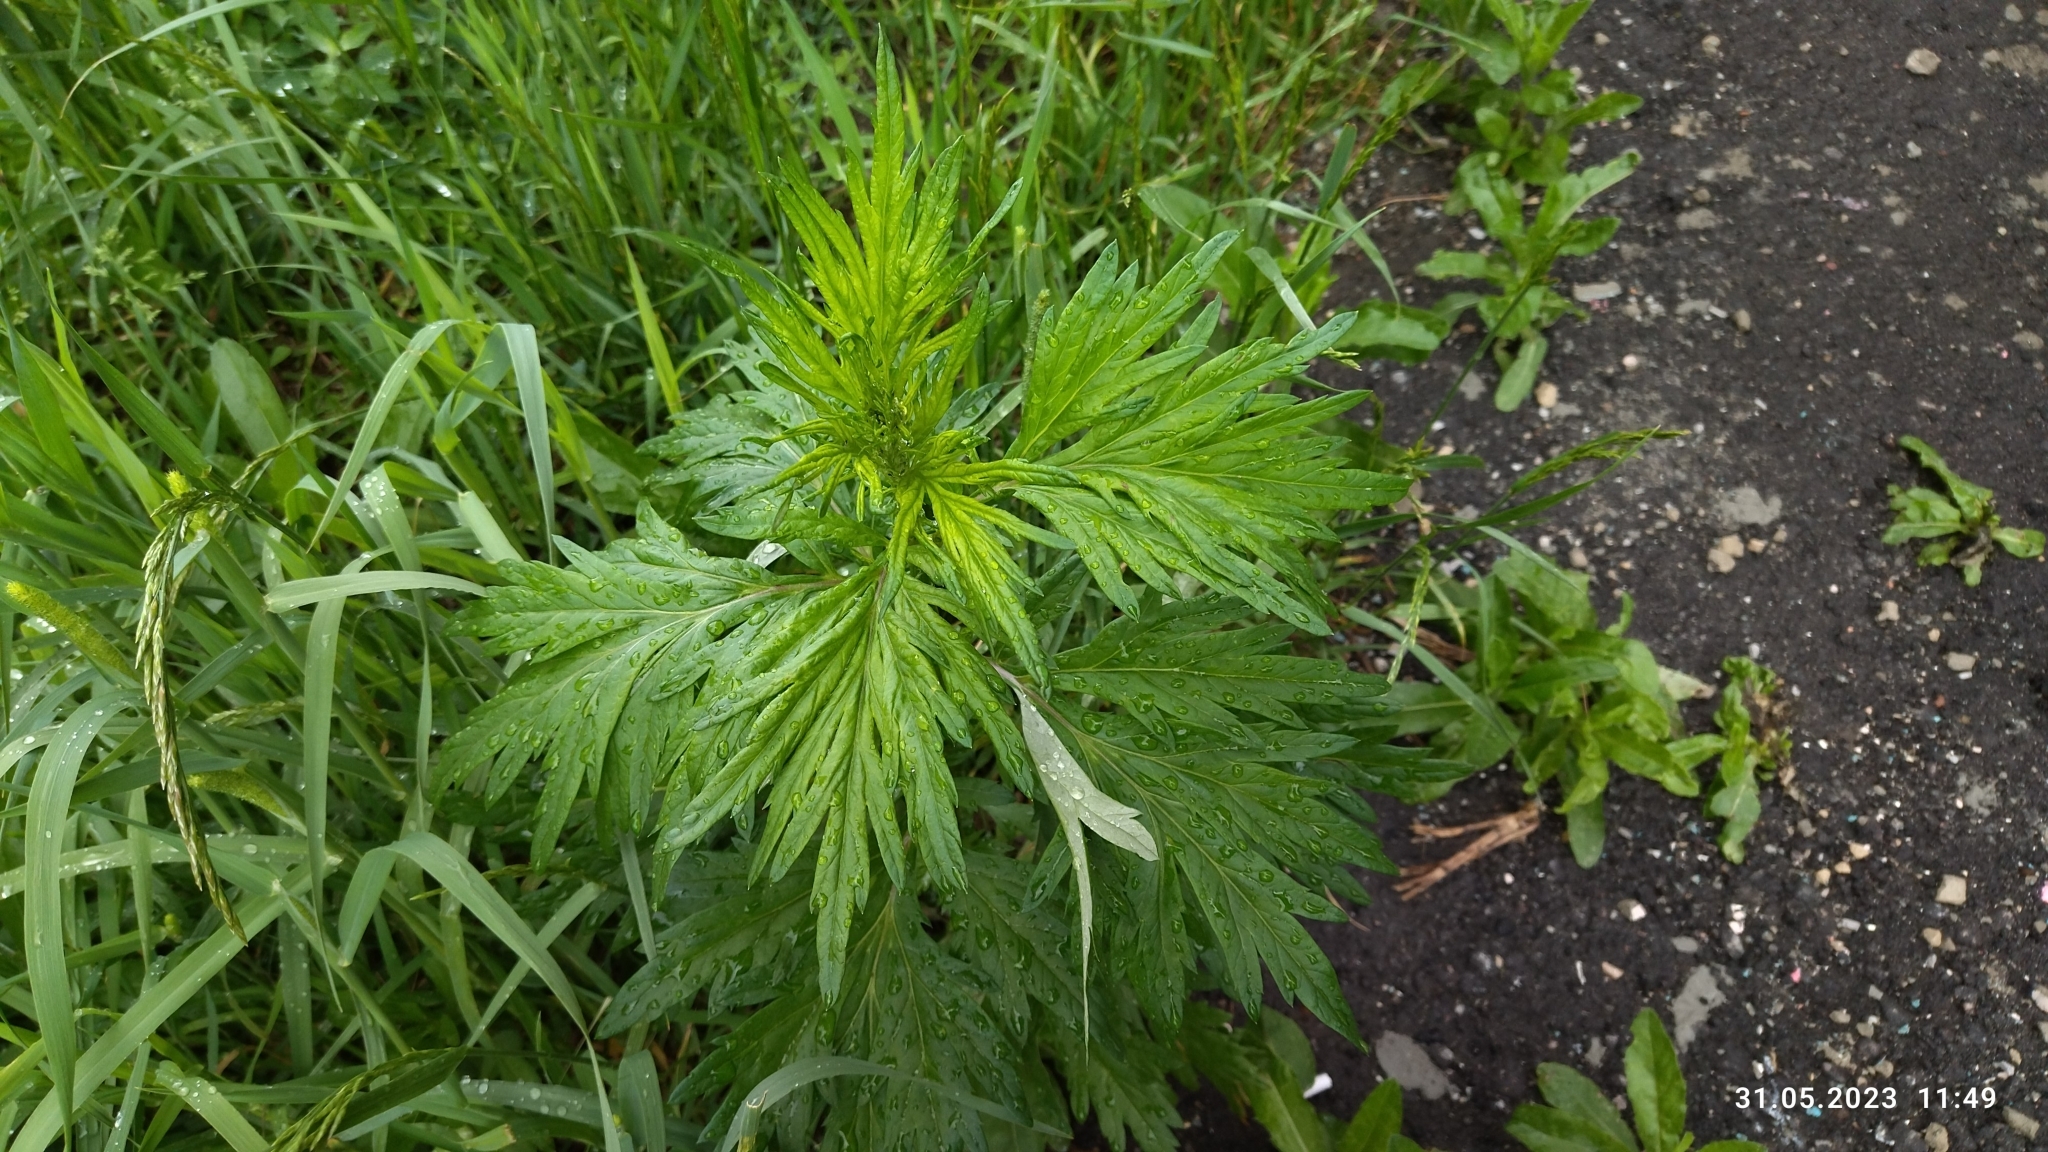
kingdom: Plantae
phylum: Tracheophyta
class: Magnoliopsida
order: Asterales
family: Asteraceae
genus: Artemisia
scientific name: Artemisia vulgaris
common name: Mugwort
